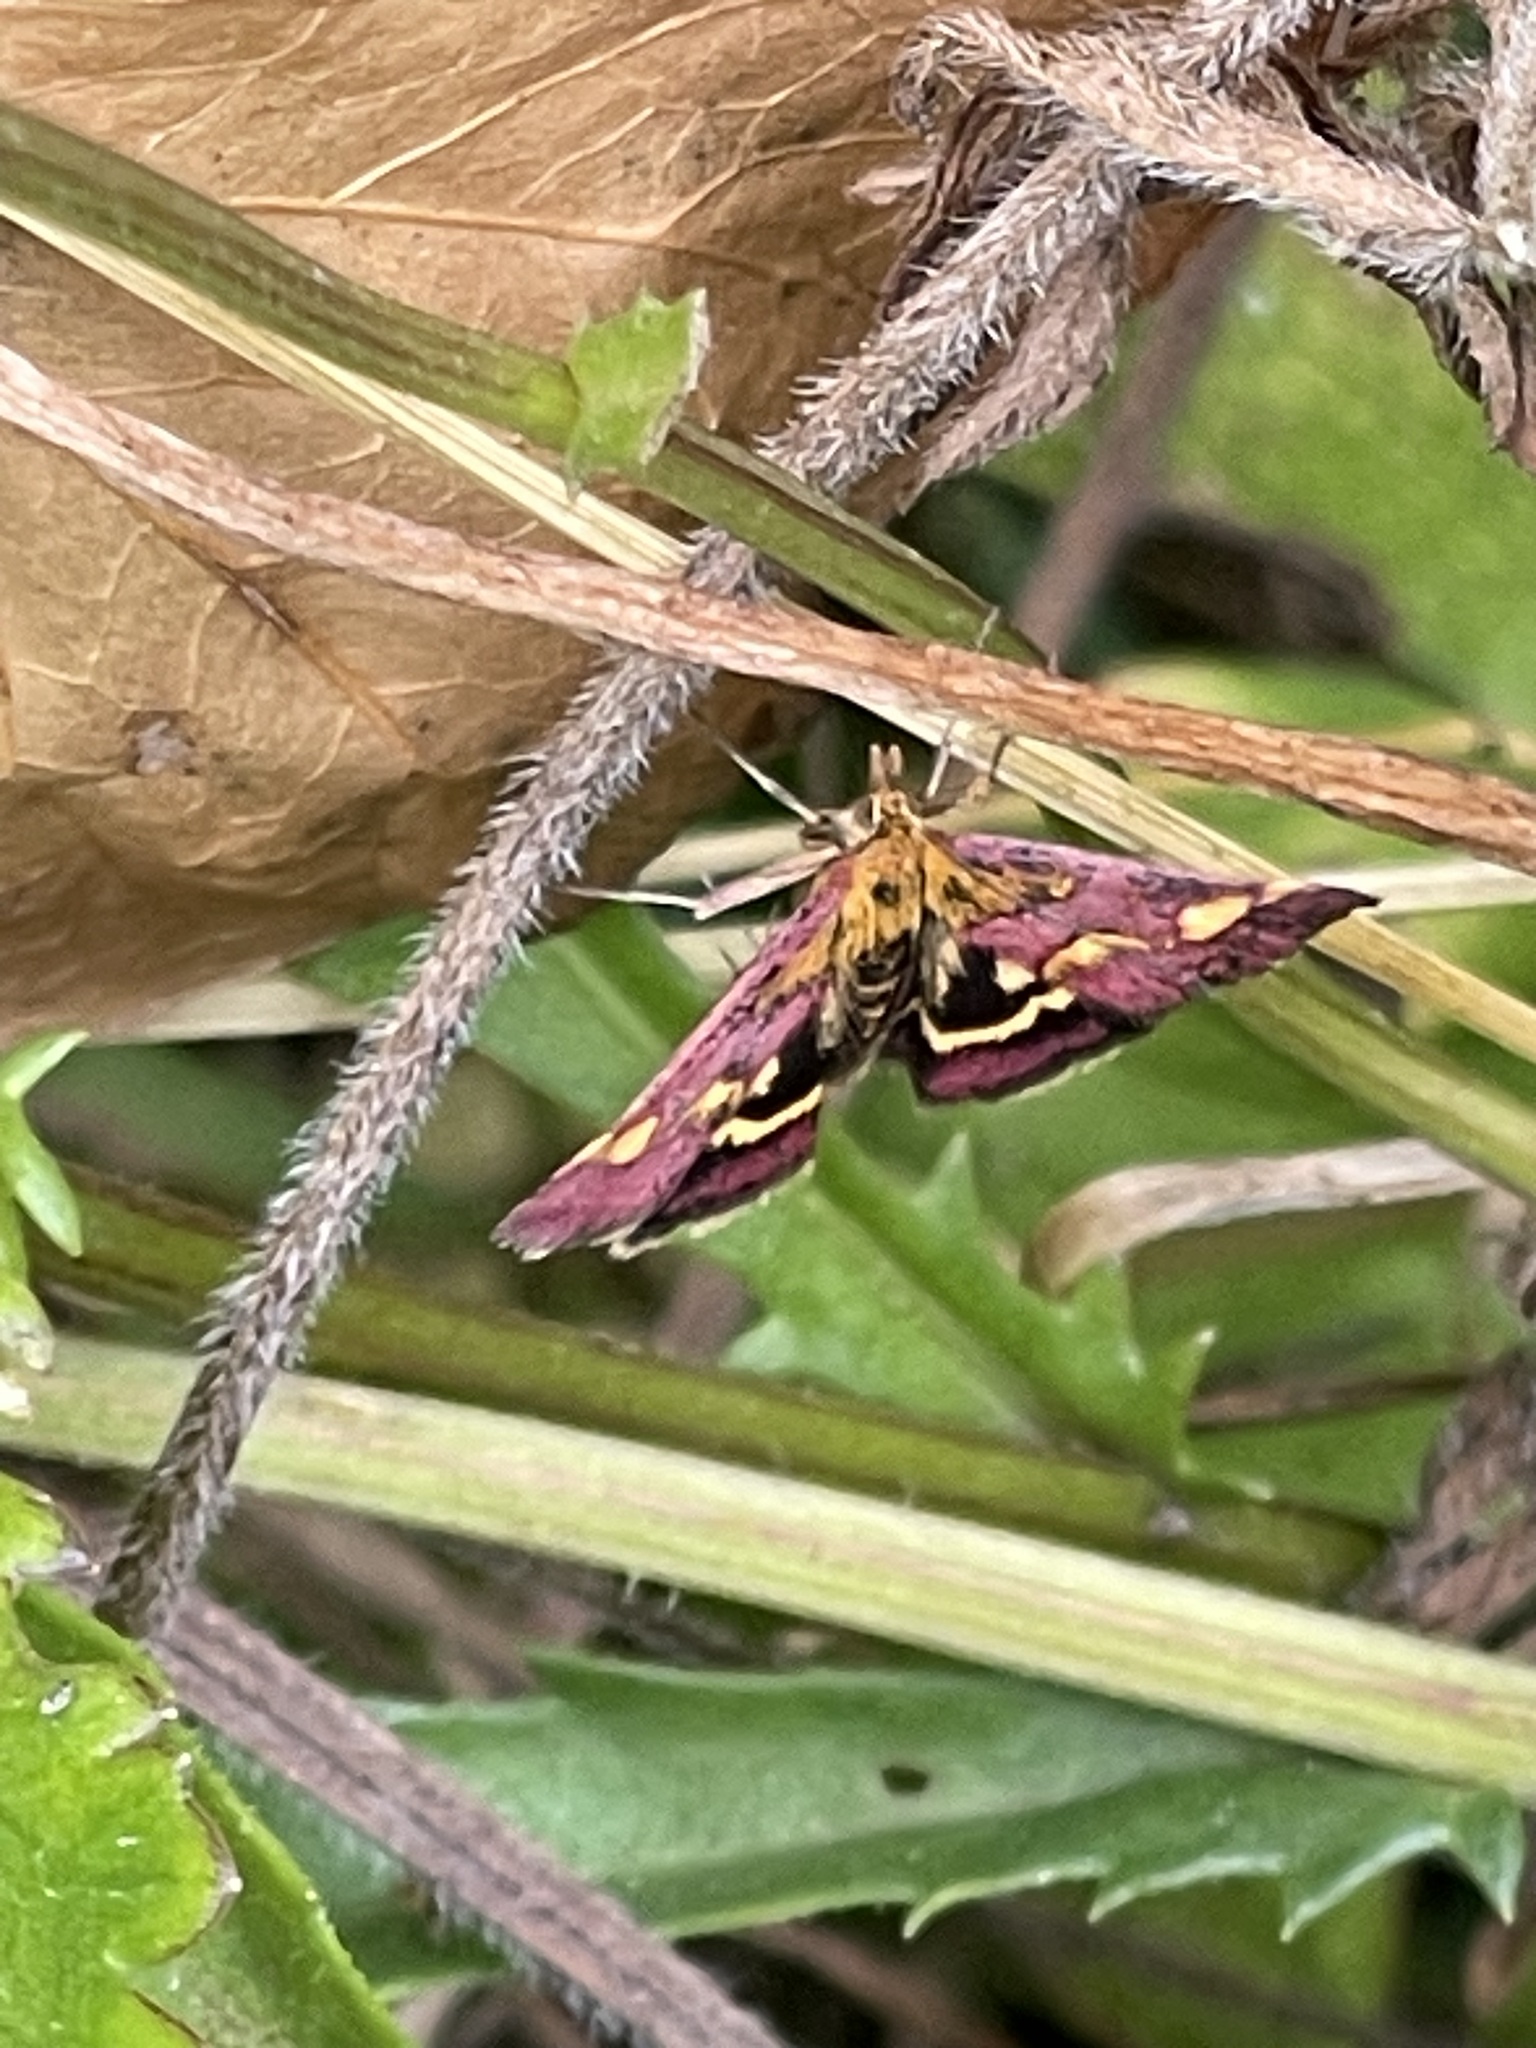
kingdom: Animalia
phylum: Arthropoda
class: Insecta
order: Lepidoptera
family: Crambidae
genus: Pyrausta
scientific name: Pyrausta purpuralis
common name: Common purple & gold
